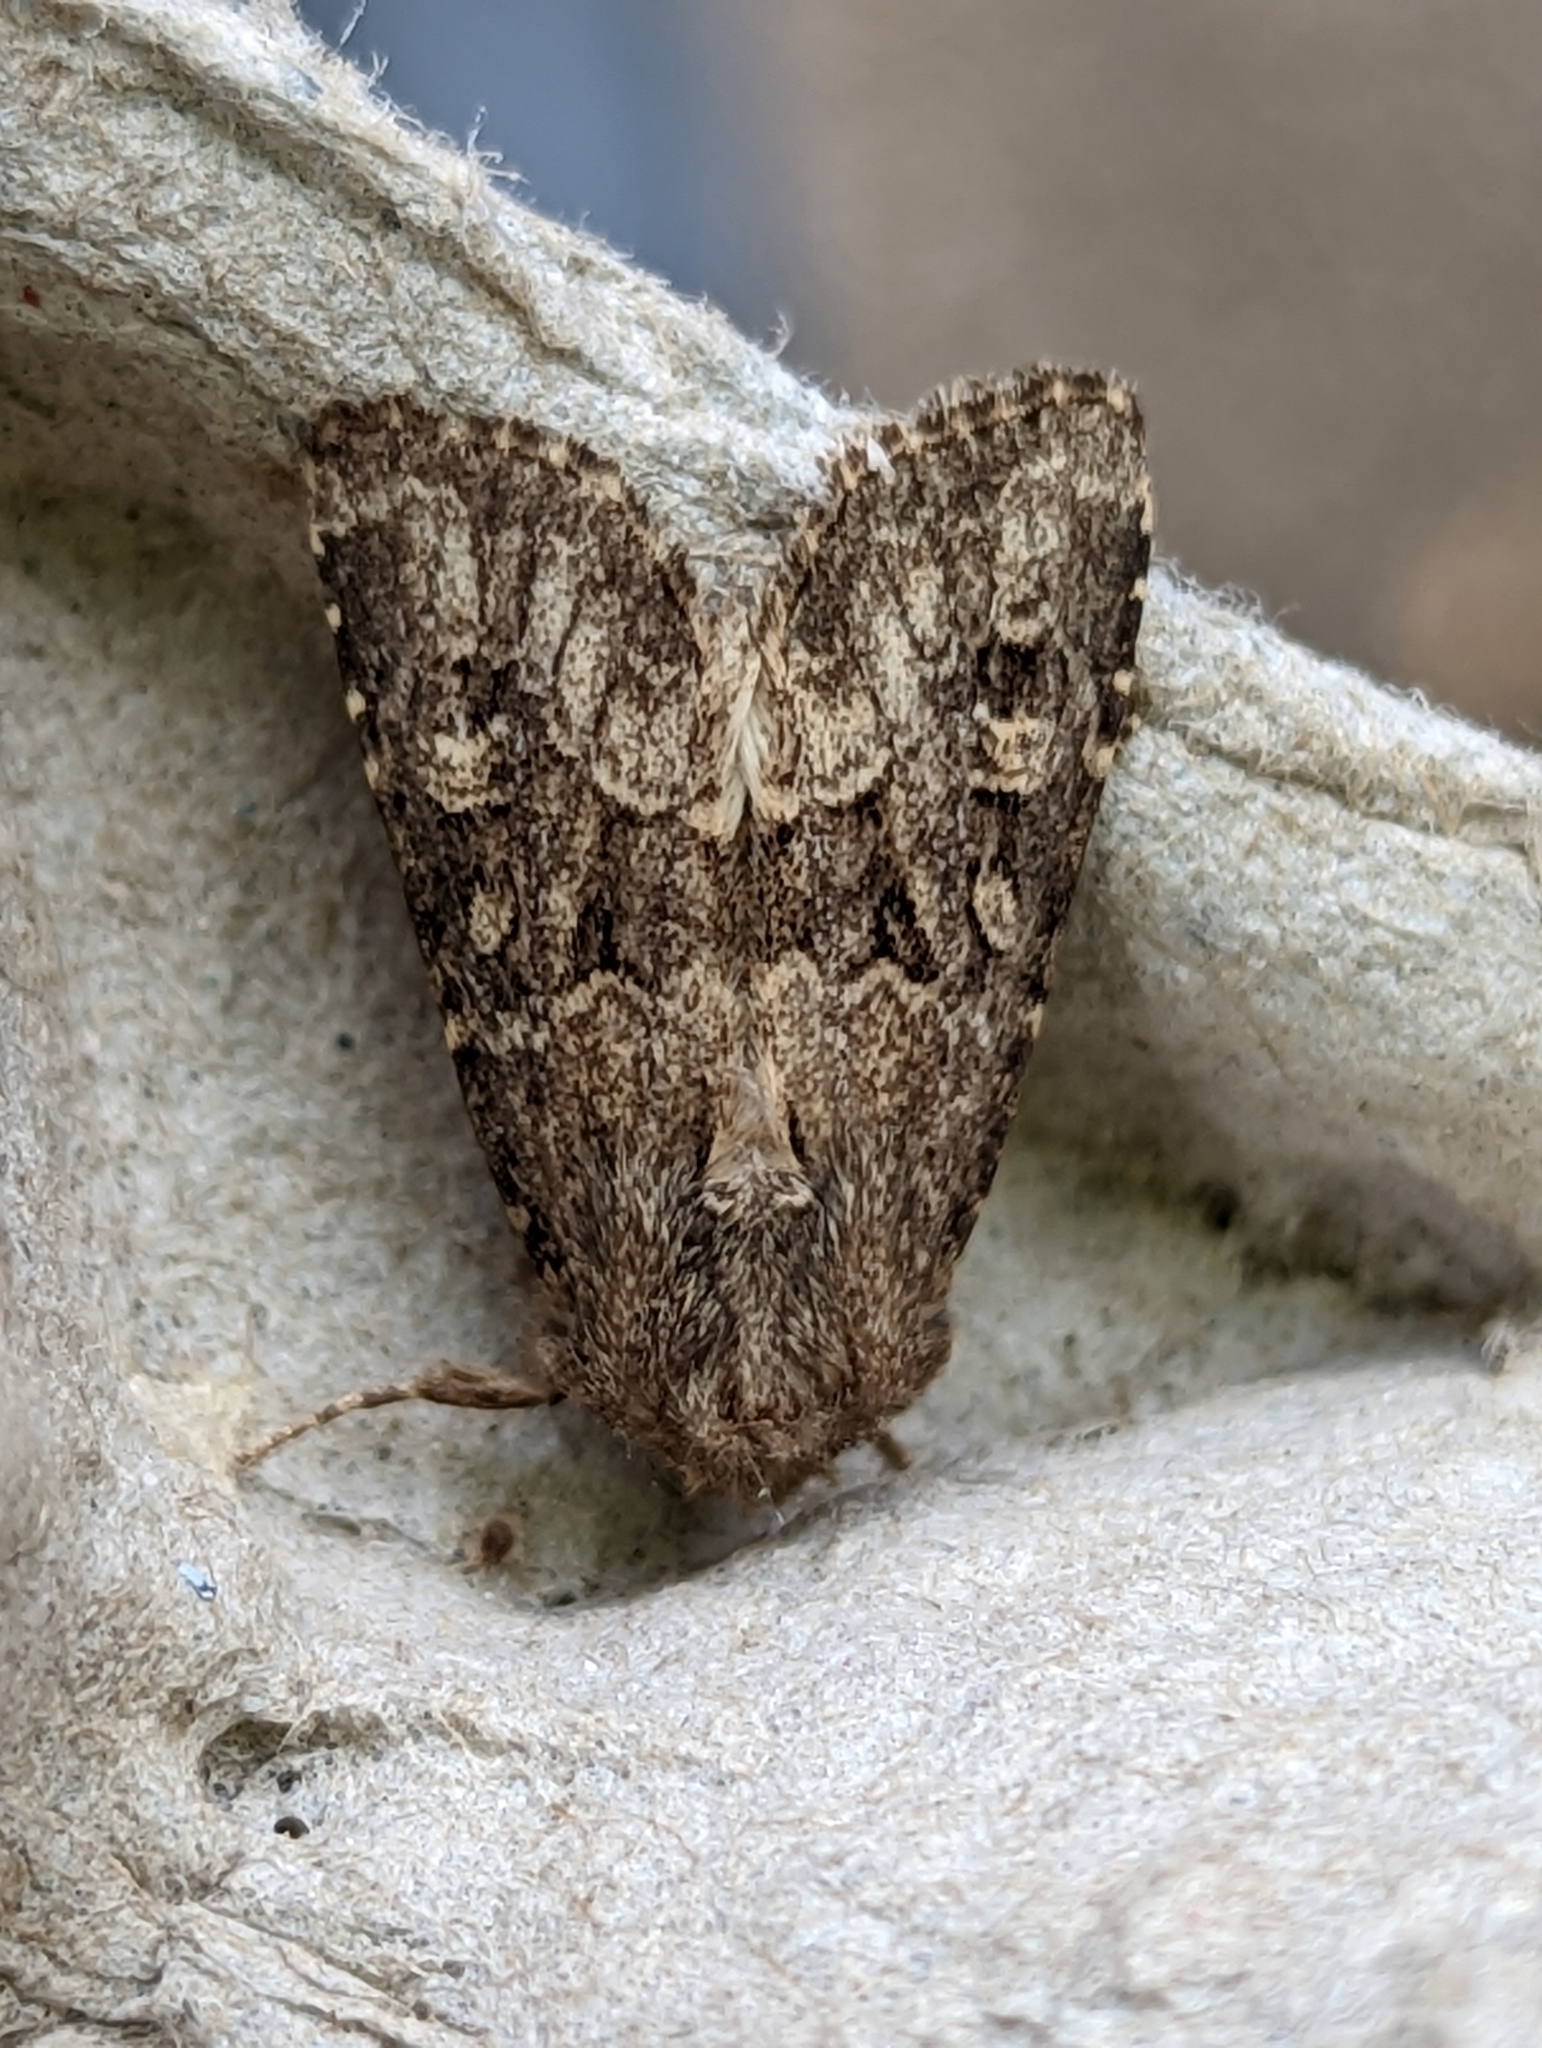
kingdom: Animalia
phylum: Arthropoda
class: Insecta
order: Lepidoptera
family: Noctuidae
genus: Luperina
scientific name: Luperina testacea
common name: Flounced rustic
